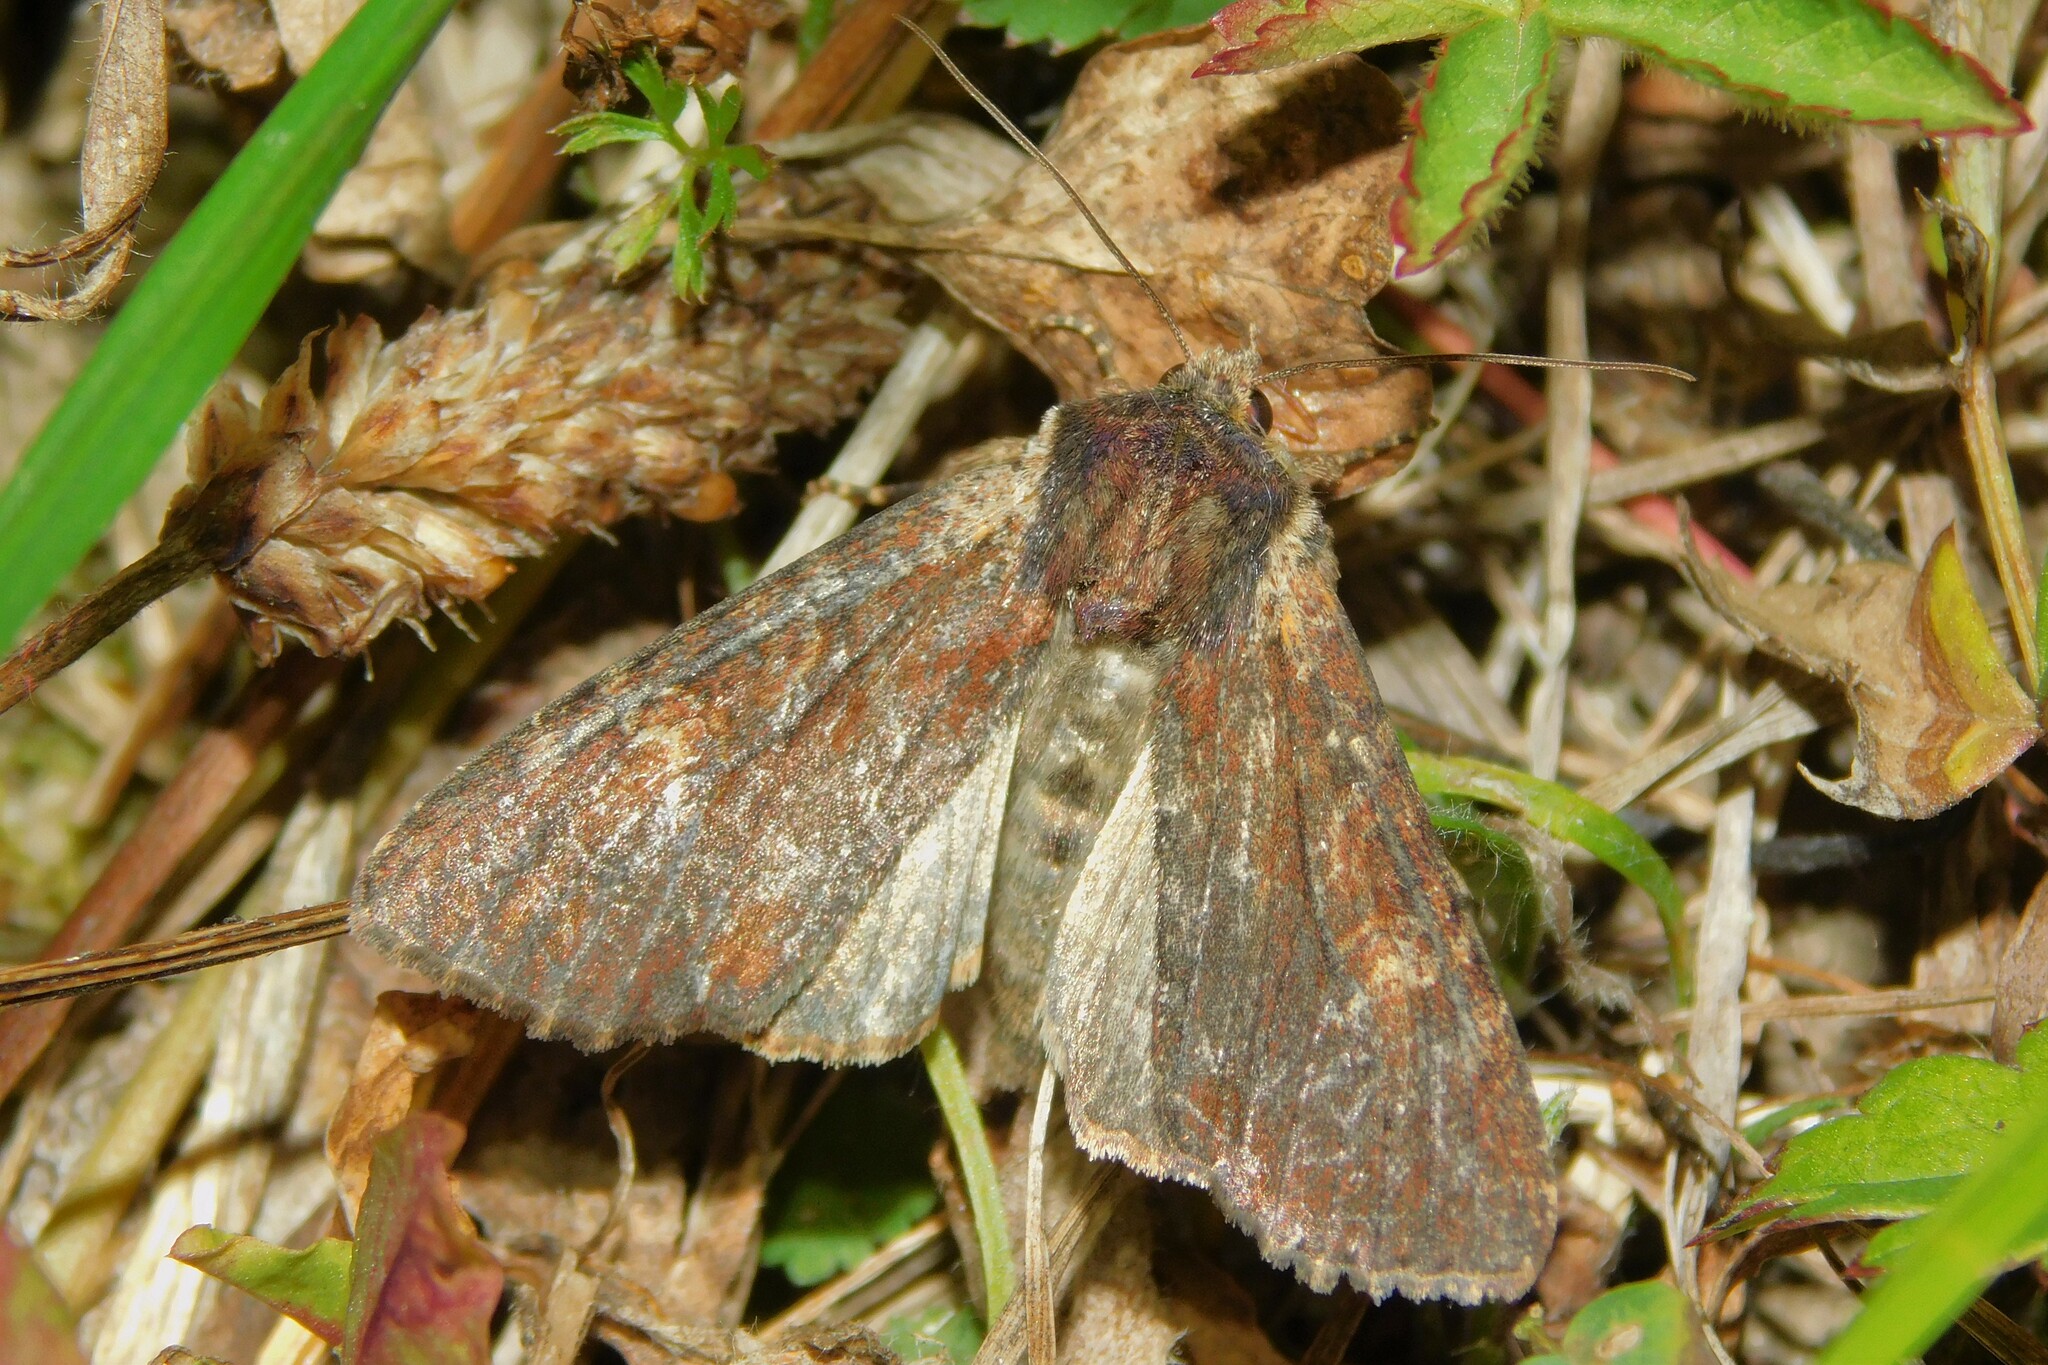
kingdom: Animalia
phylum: Arthropoda
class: Insecta
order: Lepidoptera
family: Noctuidae
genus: Apamea
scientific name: Apamea crenata
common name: Clouded-bordered brindle
